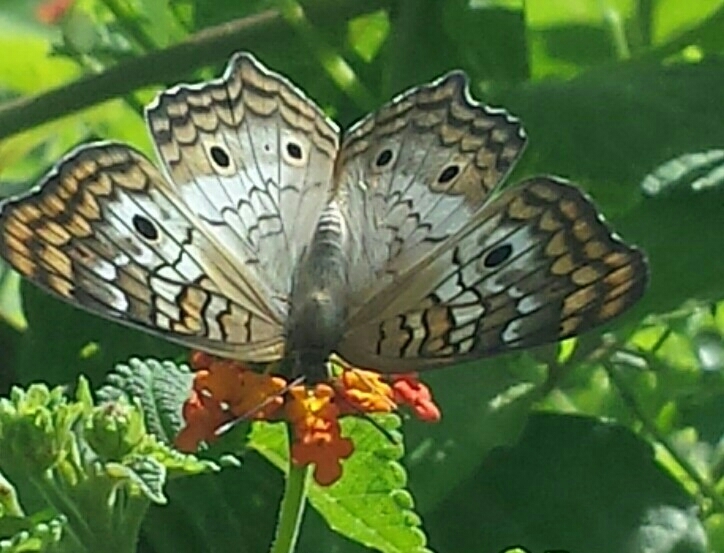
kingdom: Animalia
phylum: Arthropoda
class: Insecta
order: Lepidoptera
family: Nymphalidae
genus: Anartia
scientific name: Anartia jatrophae
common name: White peacock
